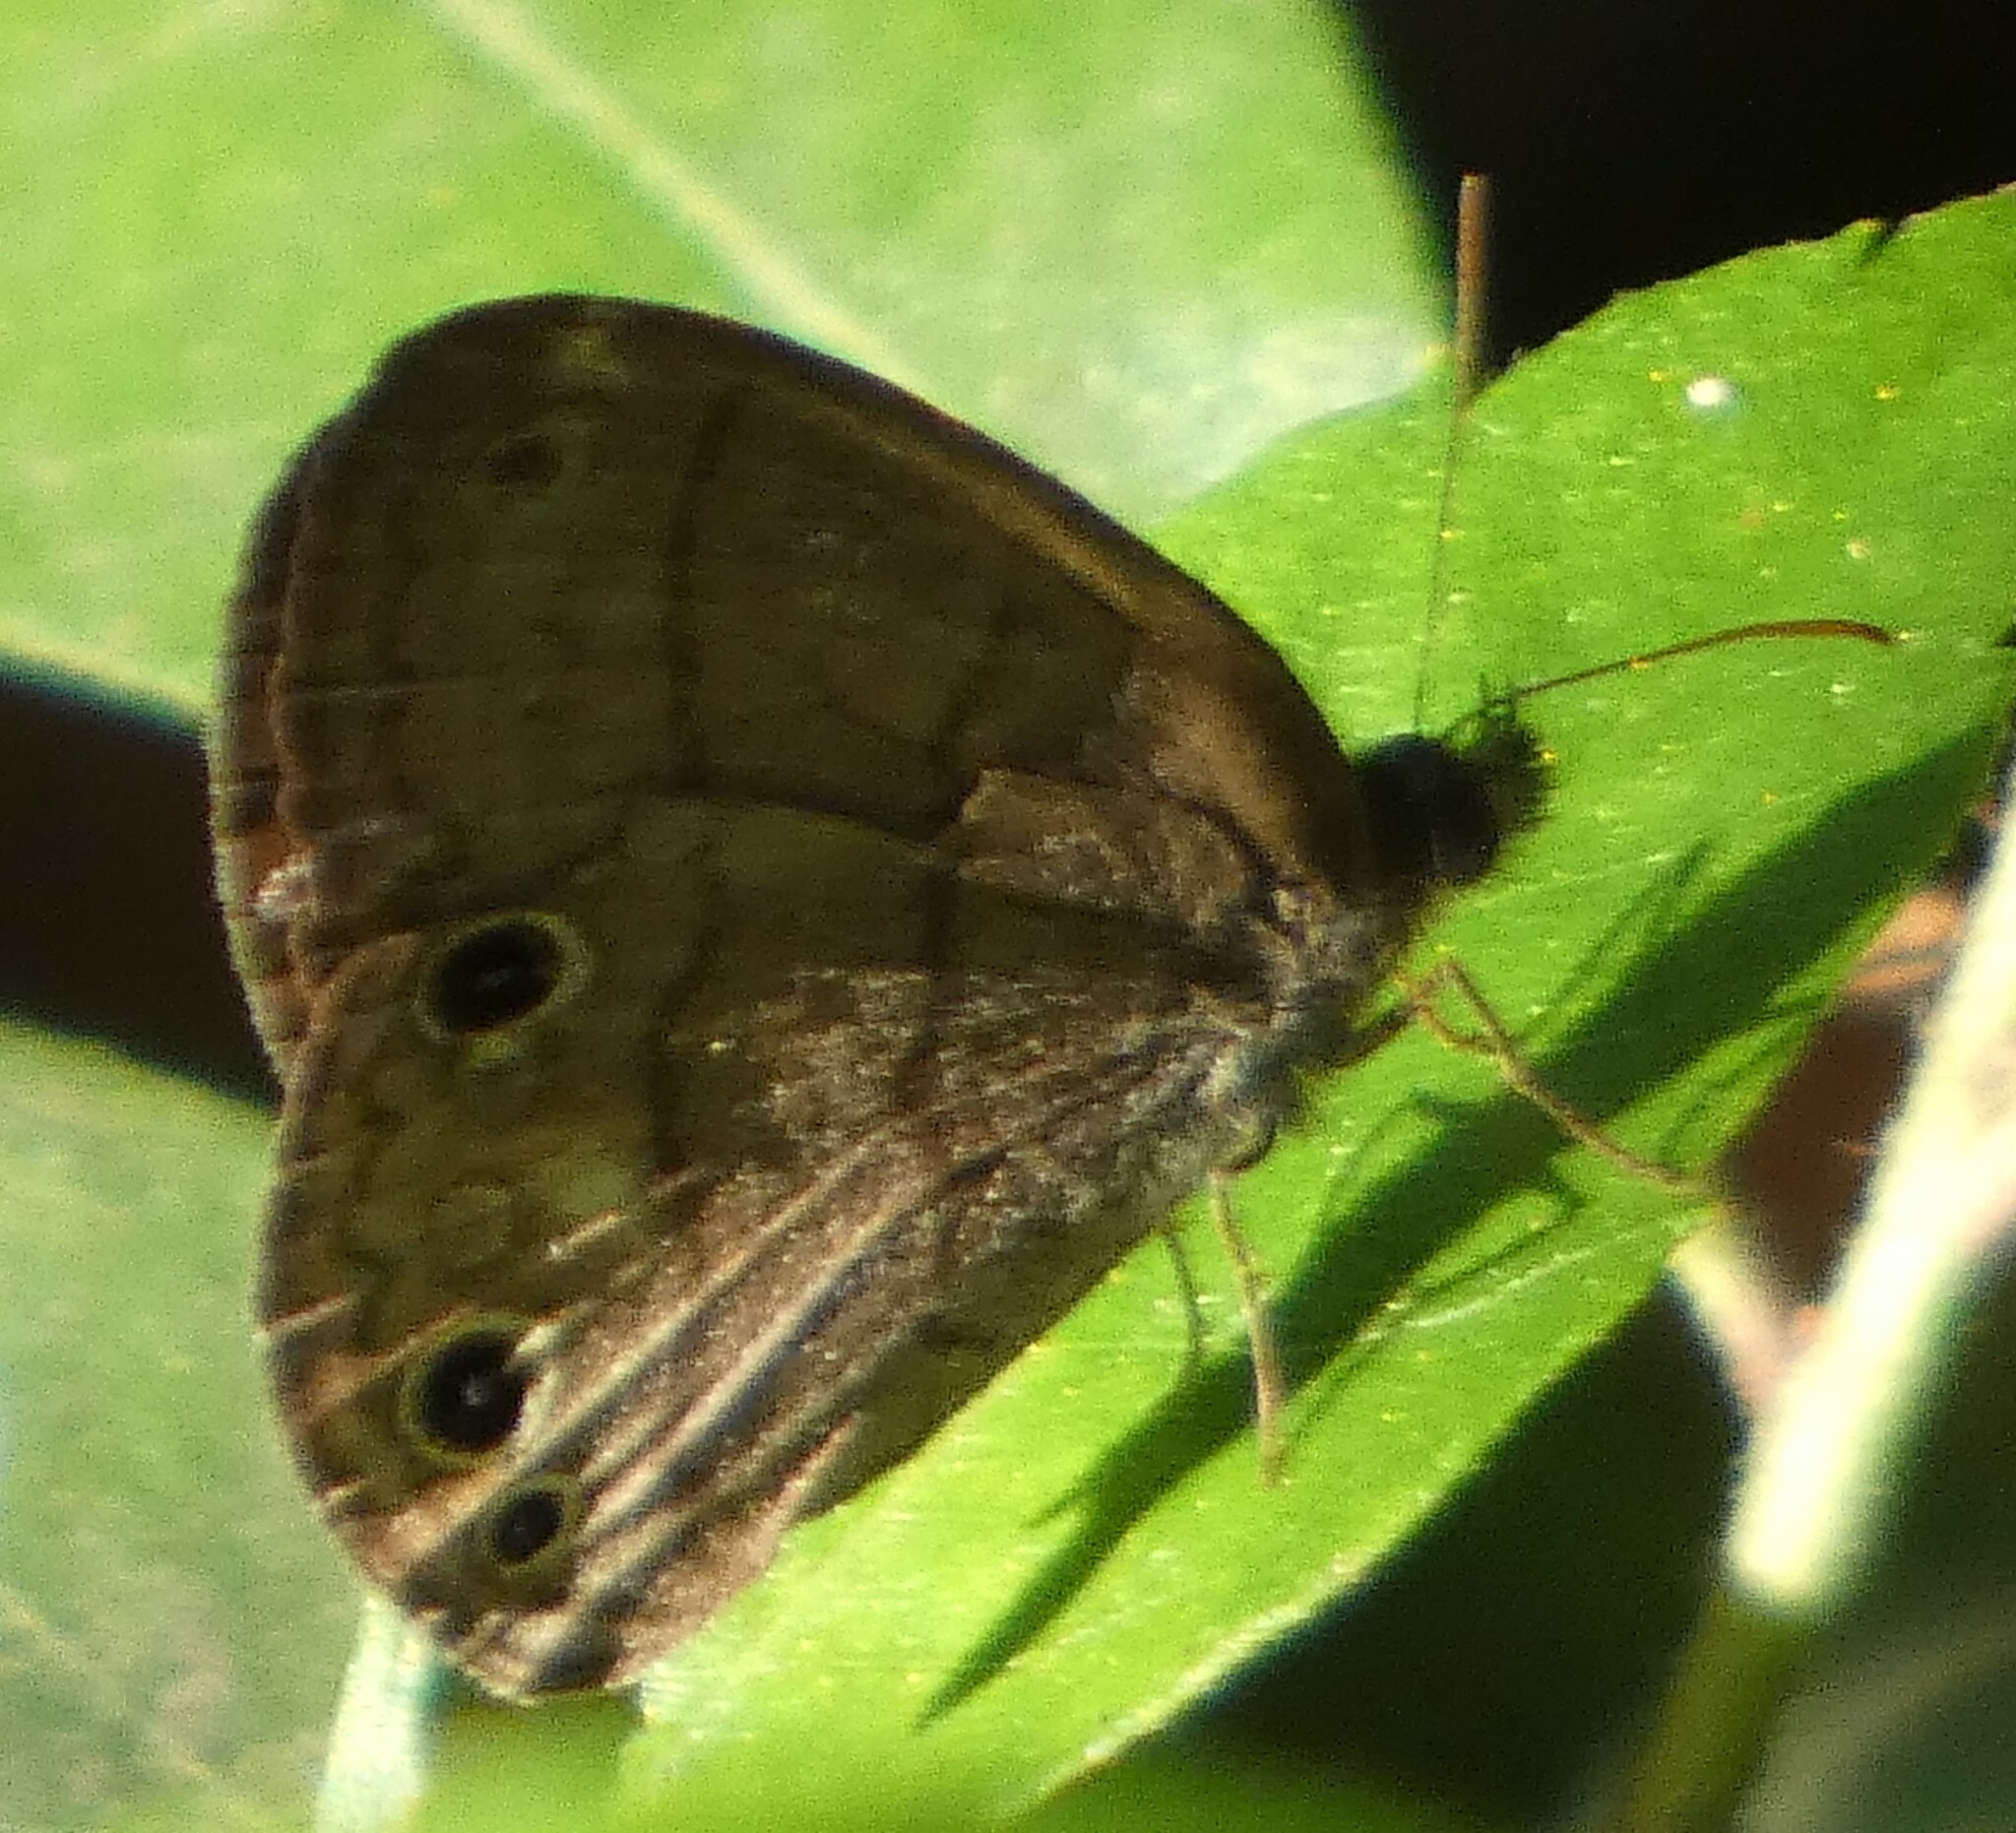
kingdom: Animalia
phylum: Arthropoda
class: Insecta
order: Lepidoptera
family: Nymphalidae
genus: Hermeuptychia
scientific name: Hermeuptychia hermes
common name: Hermes satyr
